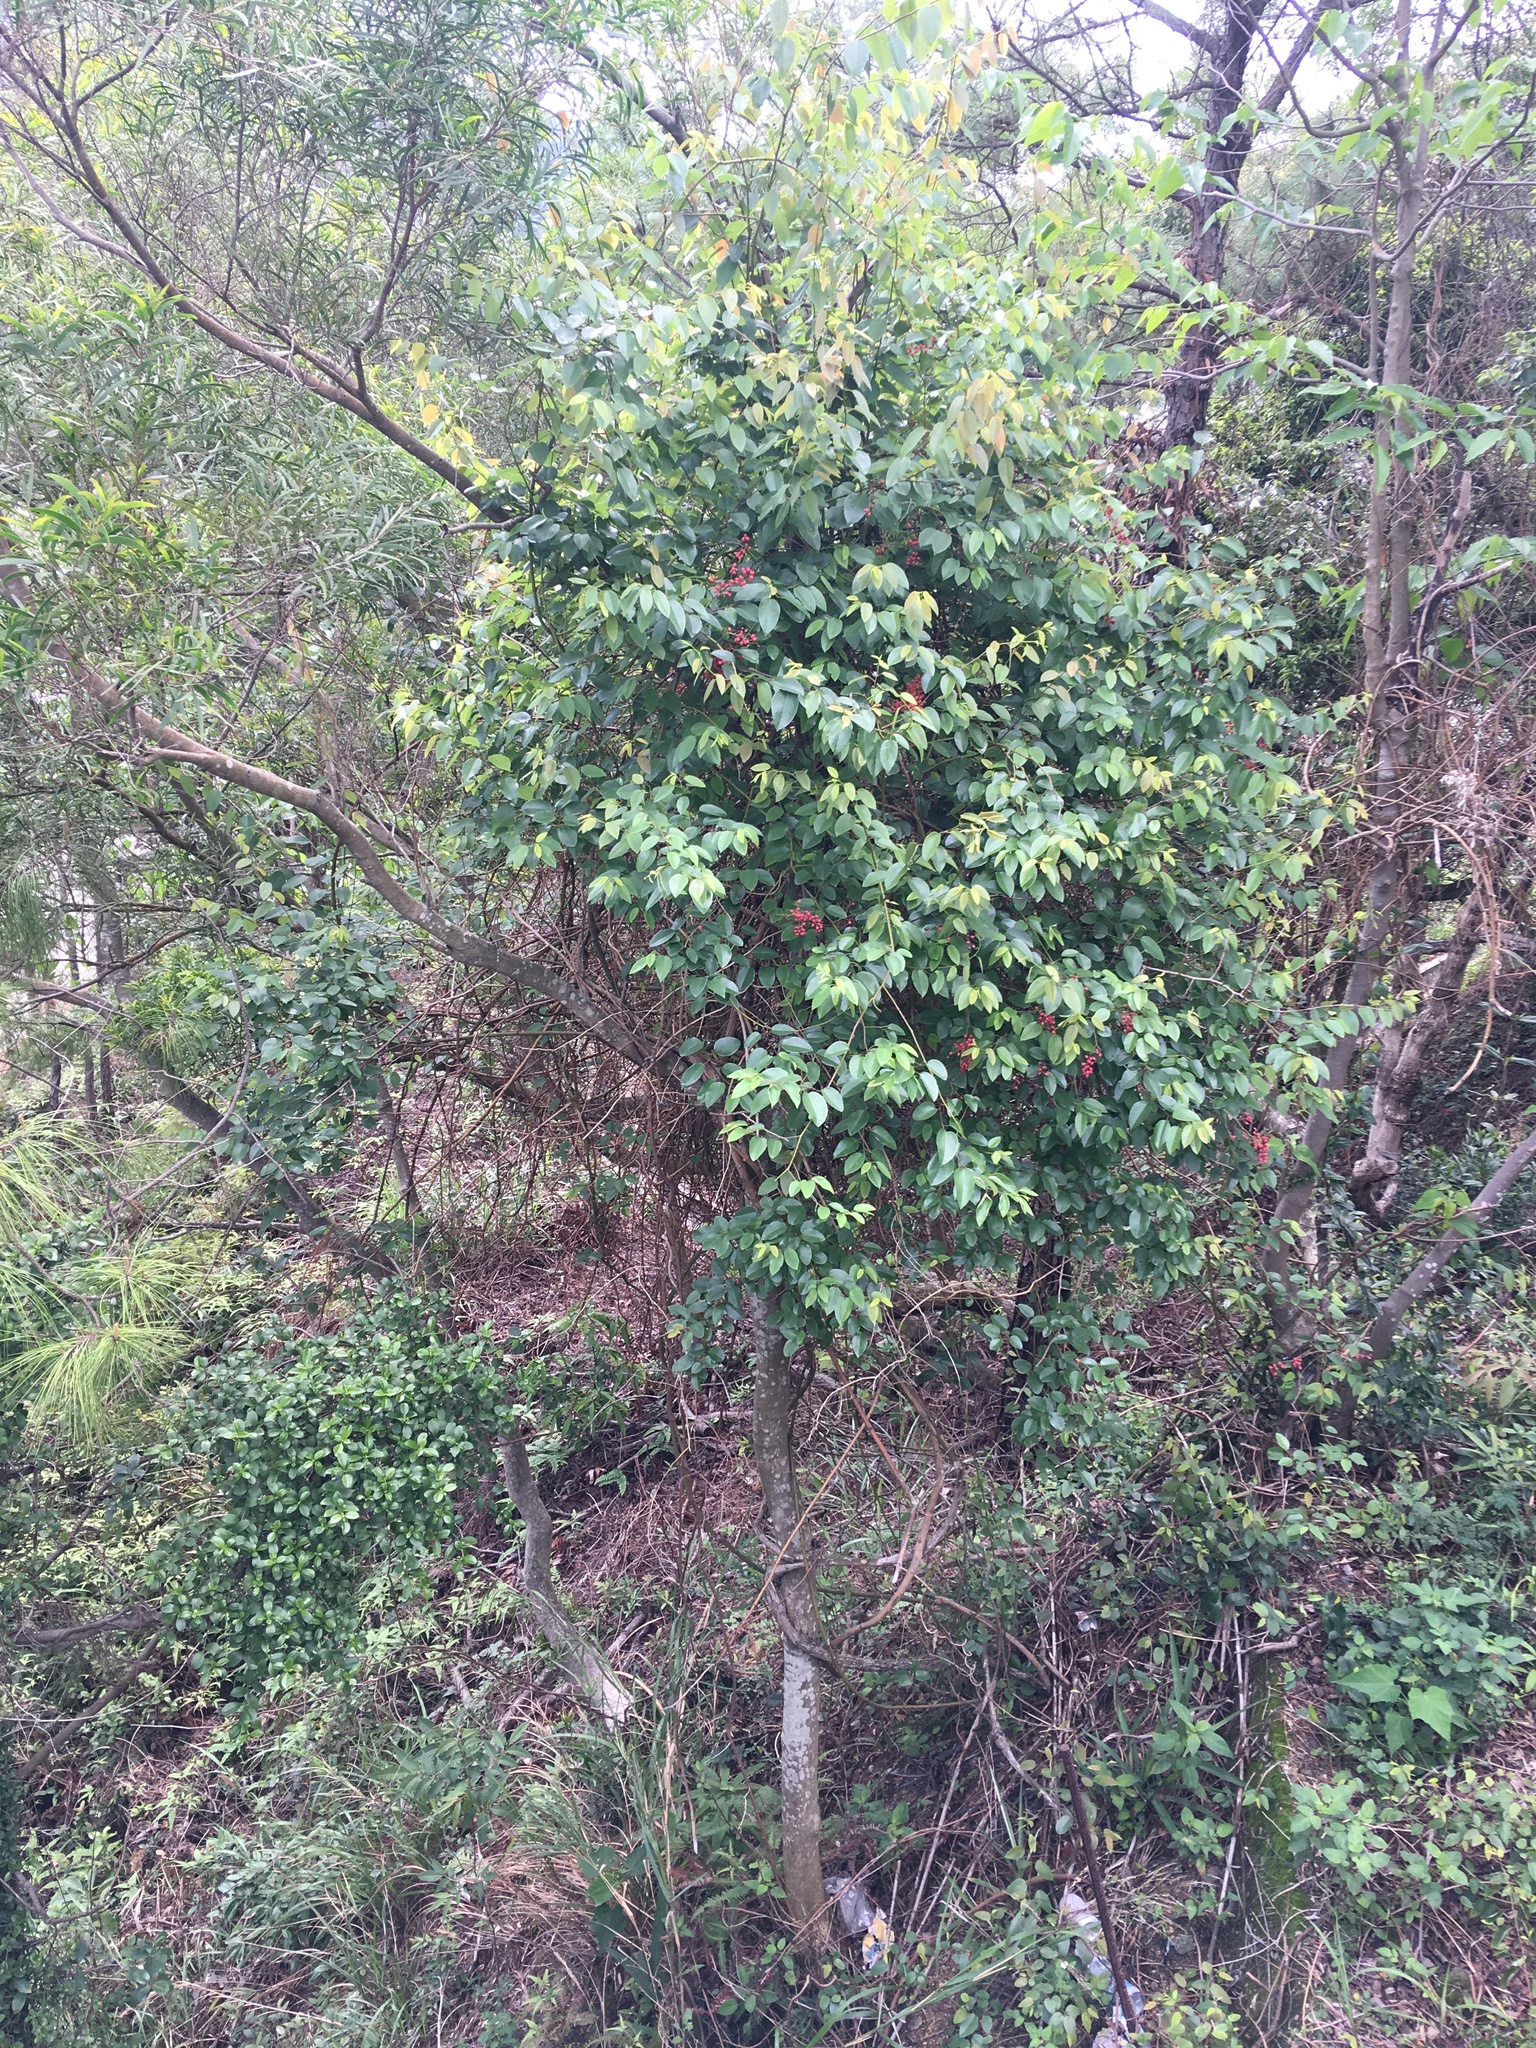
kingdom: Plantae
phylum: Tracheophyta
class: Magnoliopsida
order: Rosales
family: Rhamnaceae
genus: Berchemia
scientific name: Berchemia floribunda
